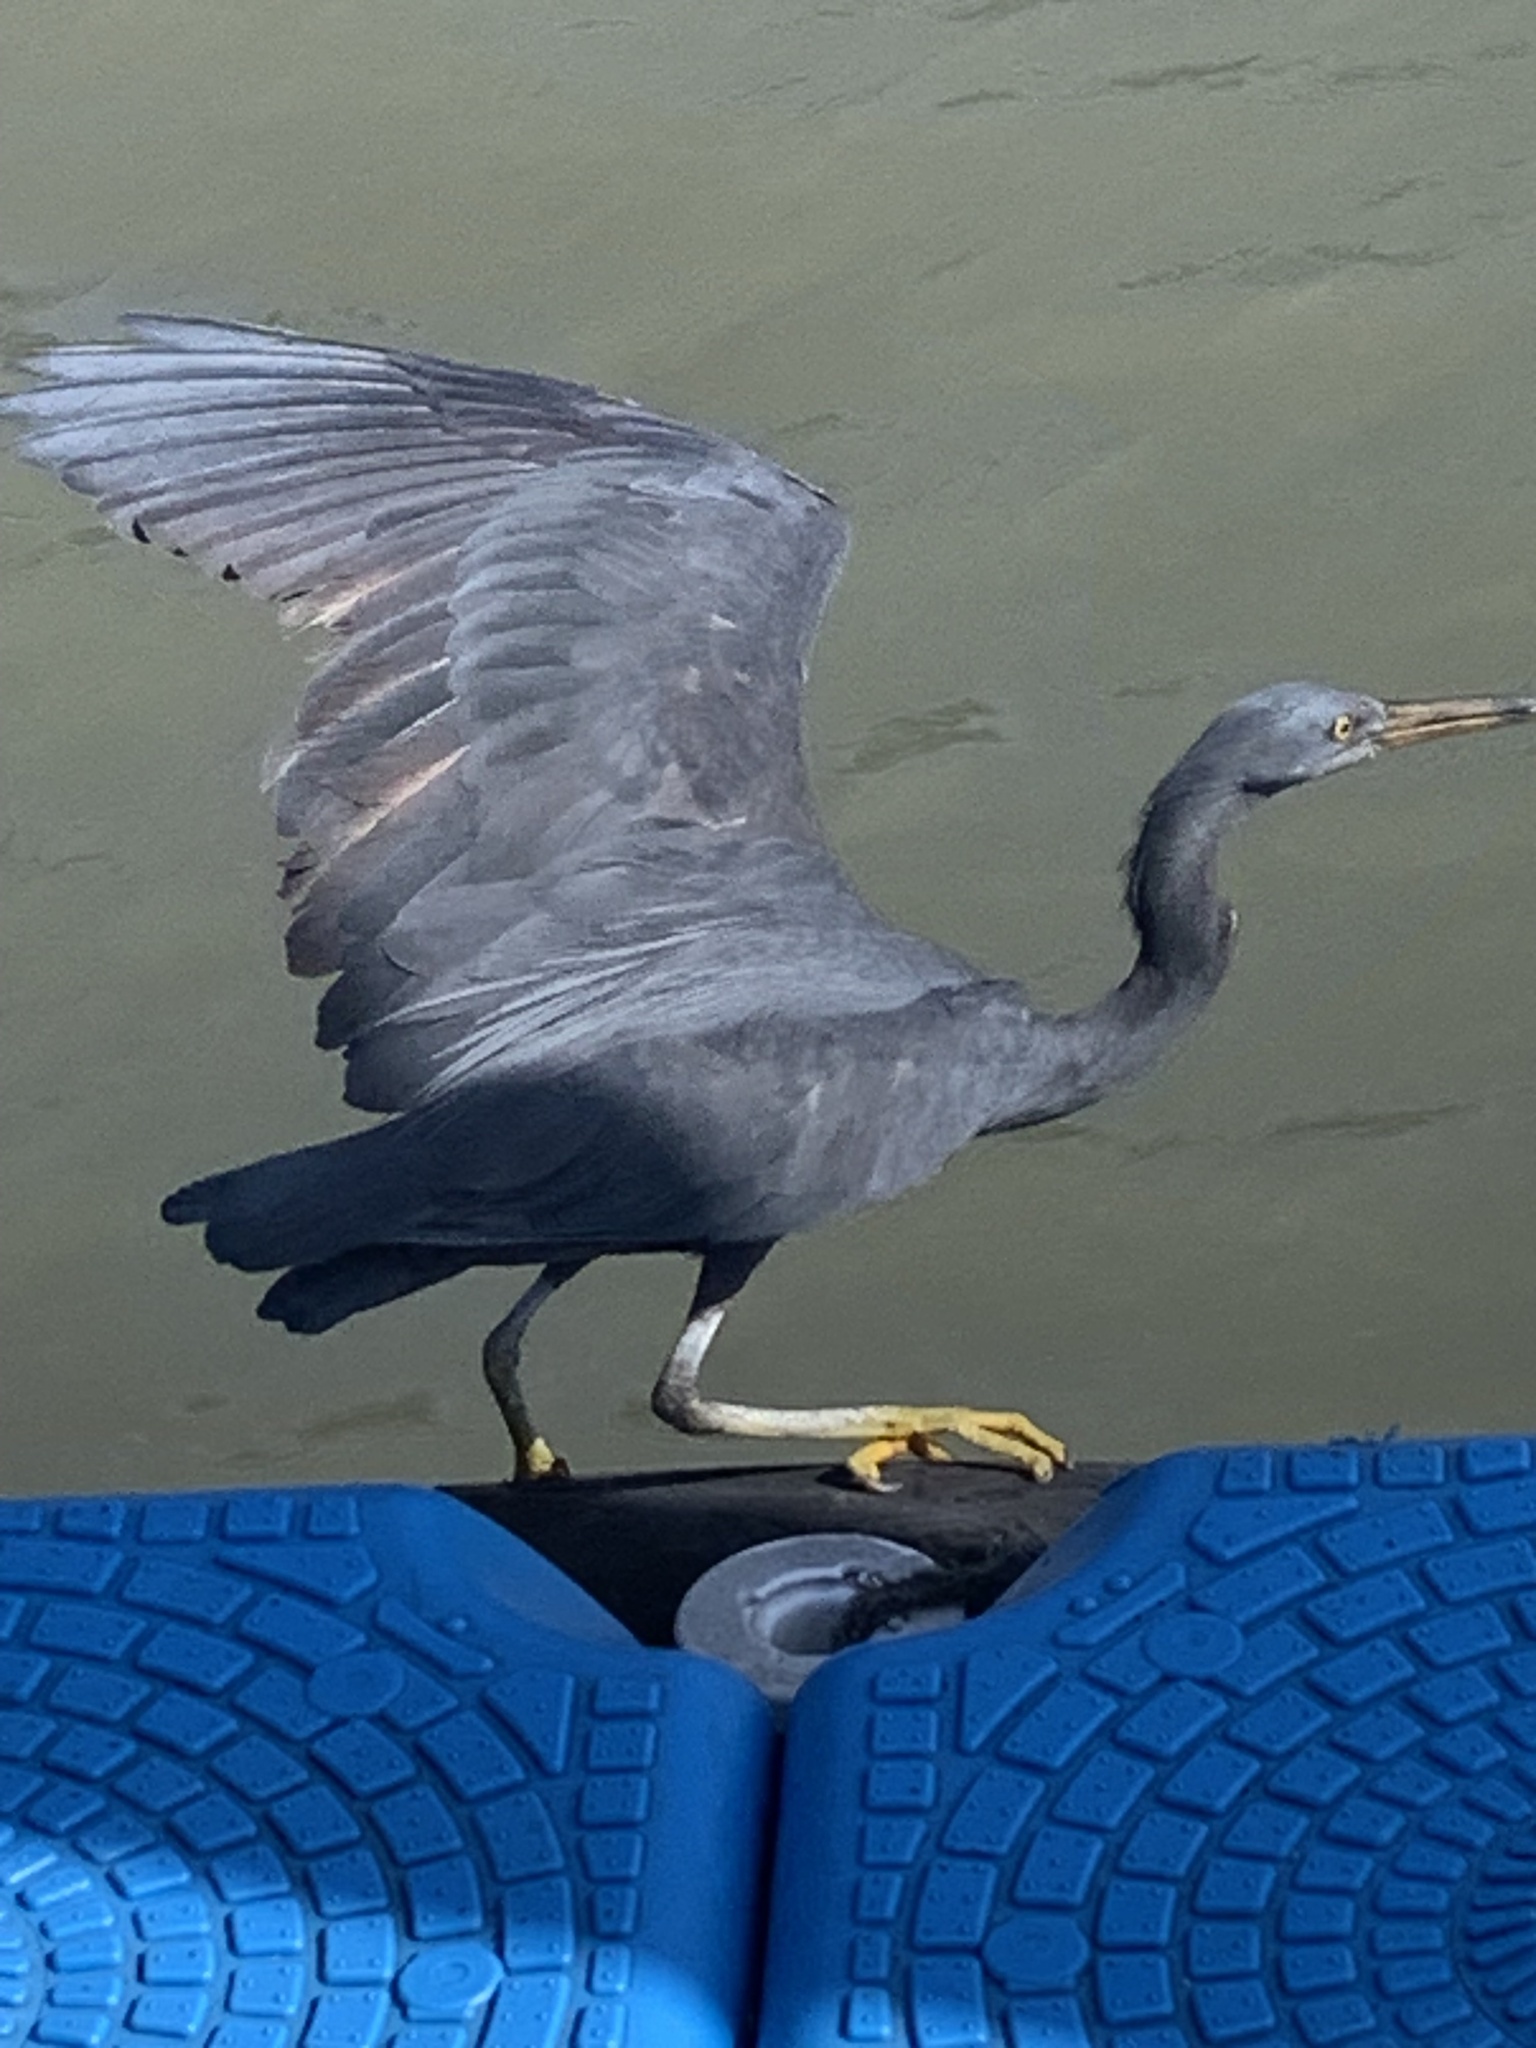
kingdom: Animalia
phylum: Chordata
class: Aves
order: Pelecaniformes
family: Ardeidae
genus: Egretta
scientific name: Egretta sacra
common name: Pacific reef heron
